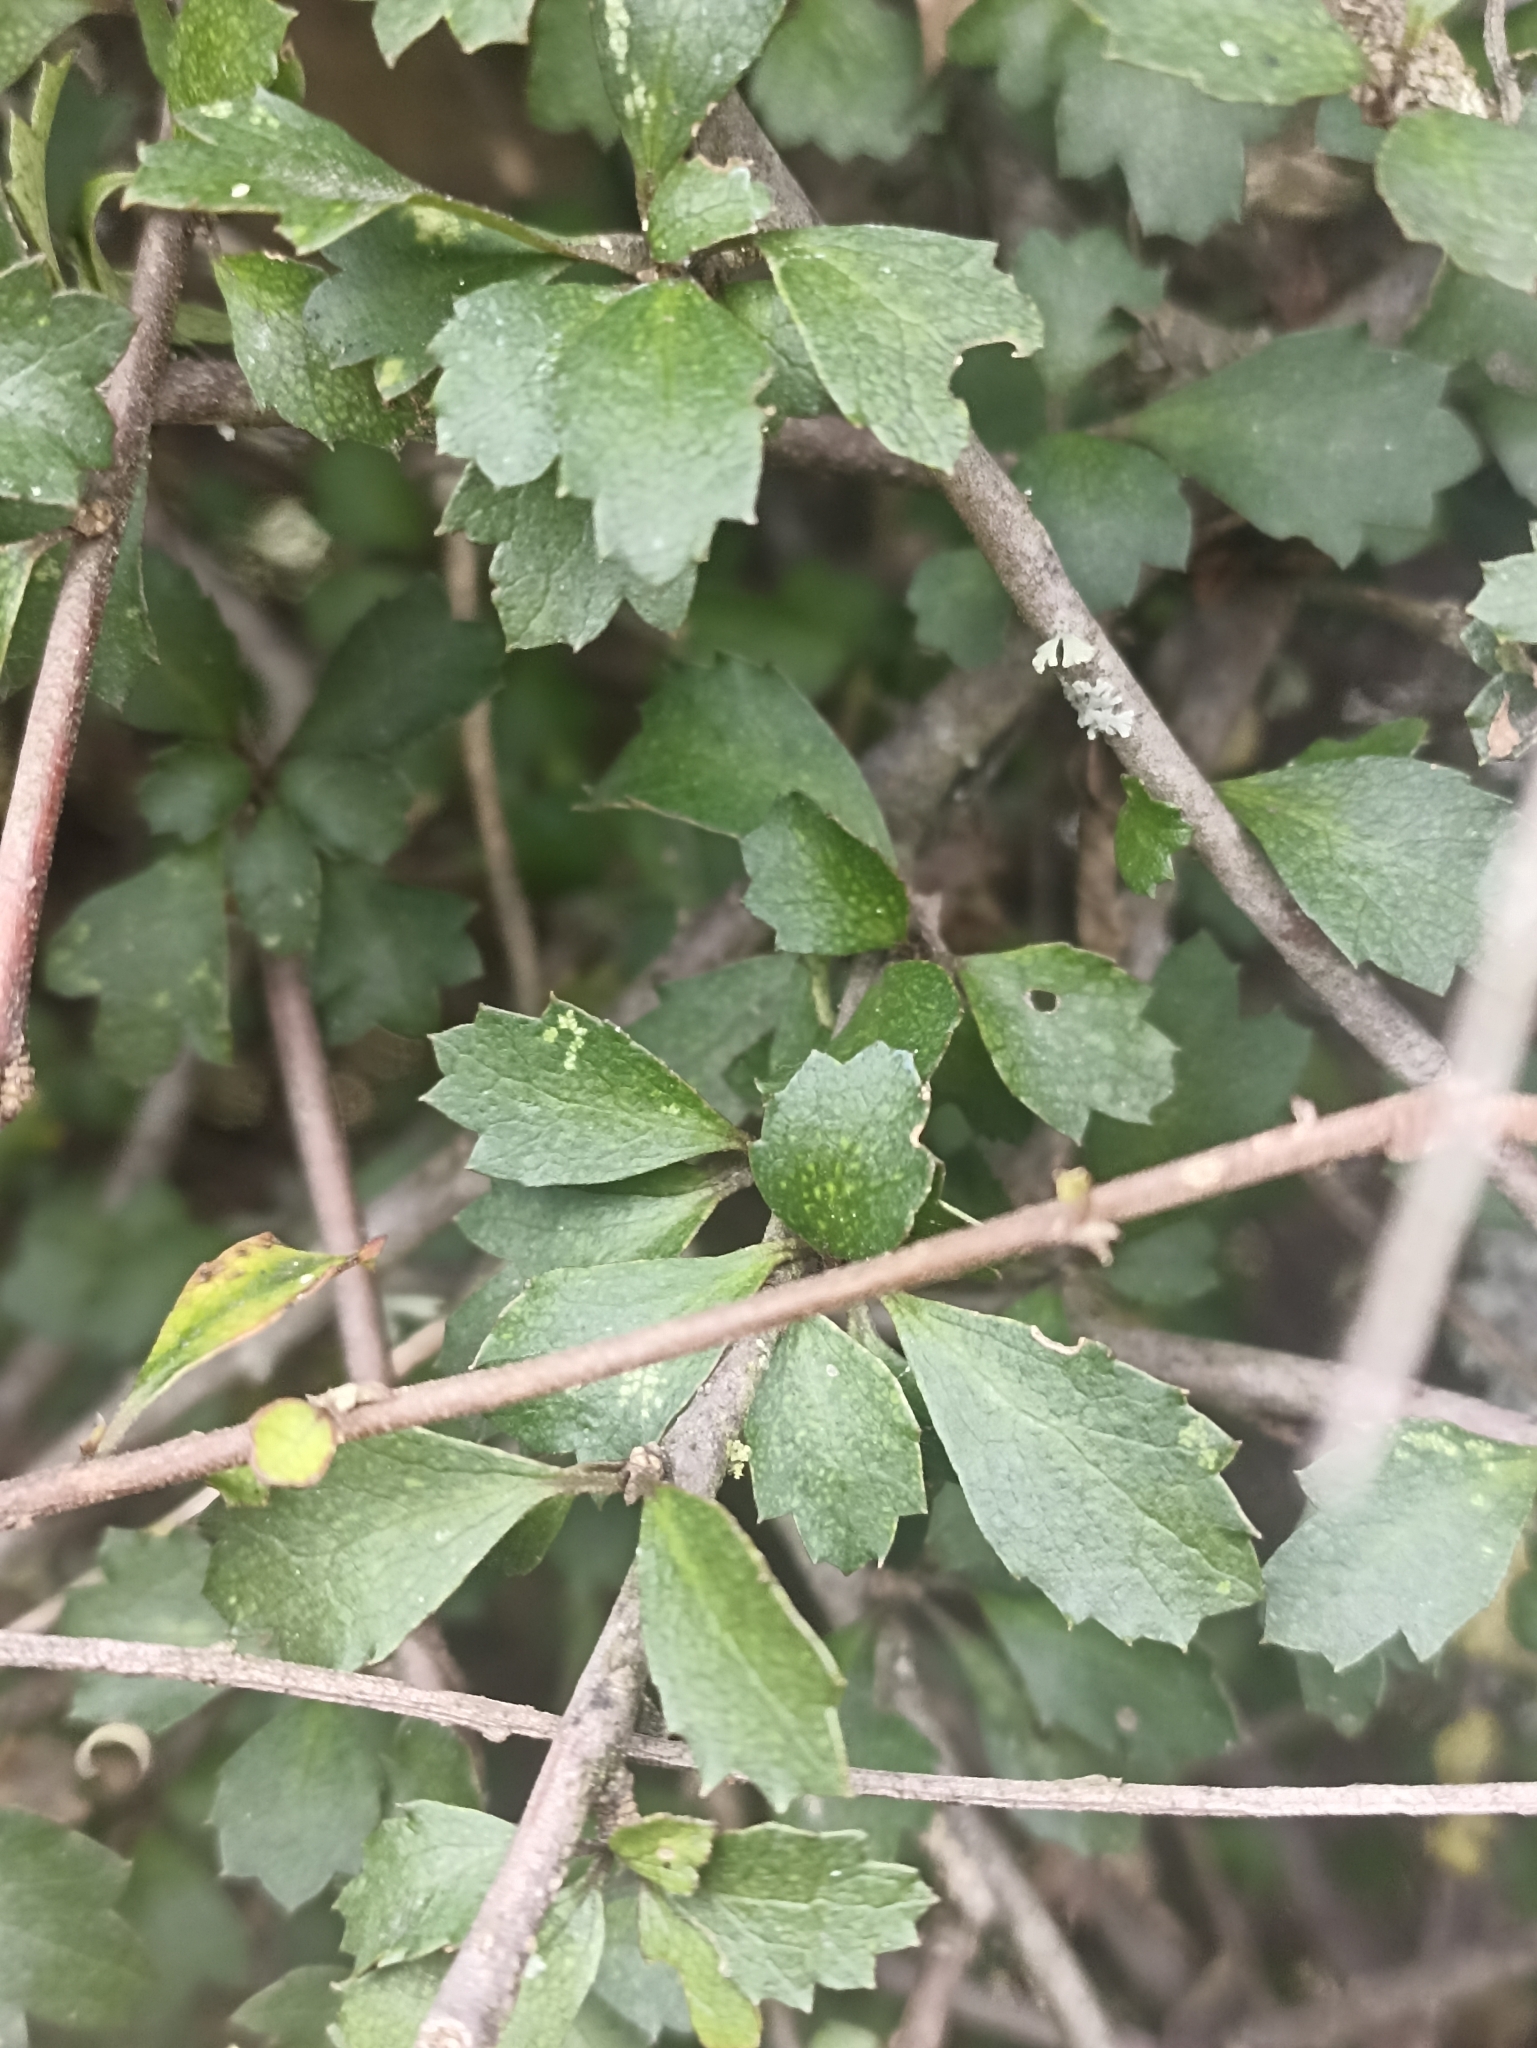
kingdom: Plantae
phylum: Tracheophyta
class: Magnoliopsida
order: Malvales
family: Malvaceae
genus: Hoheria
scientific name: Hoheria angustifolia
